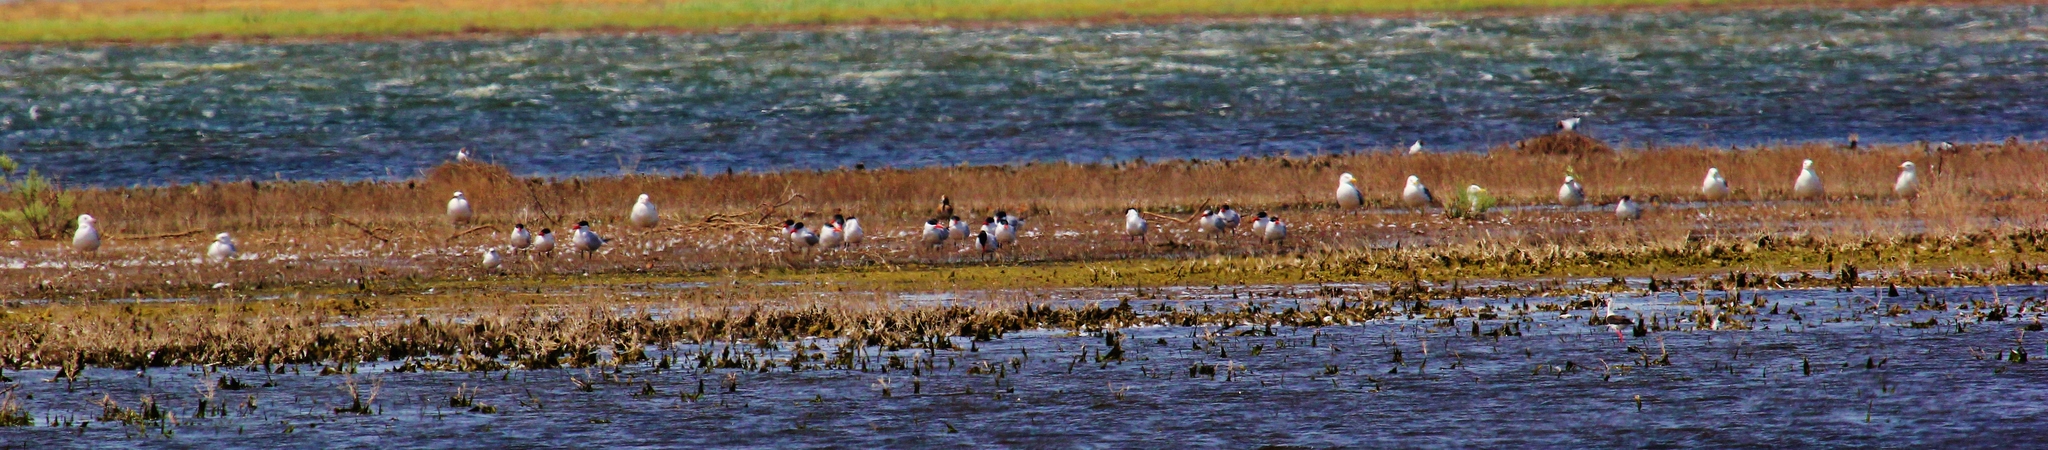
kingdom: Animalia
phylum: Chordata
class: Aves
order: Charadriiformes
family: Laridae
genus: Hydroprogne
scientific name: Hydroprogne caspia
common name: Caspian tern
